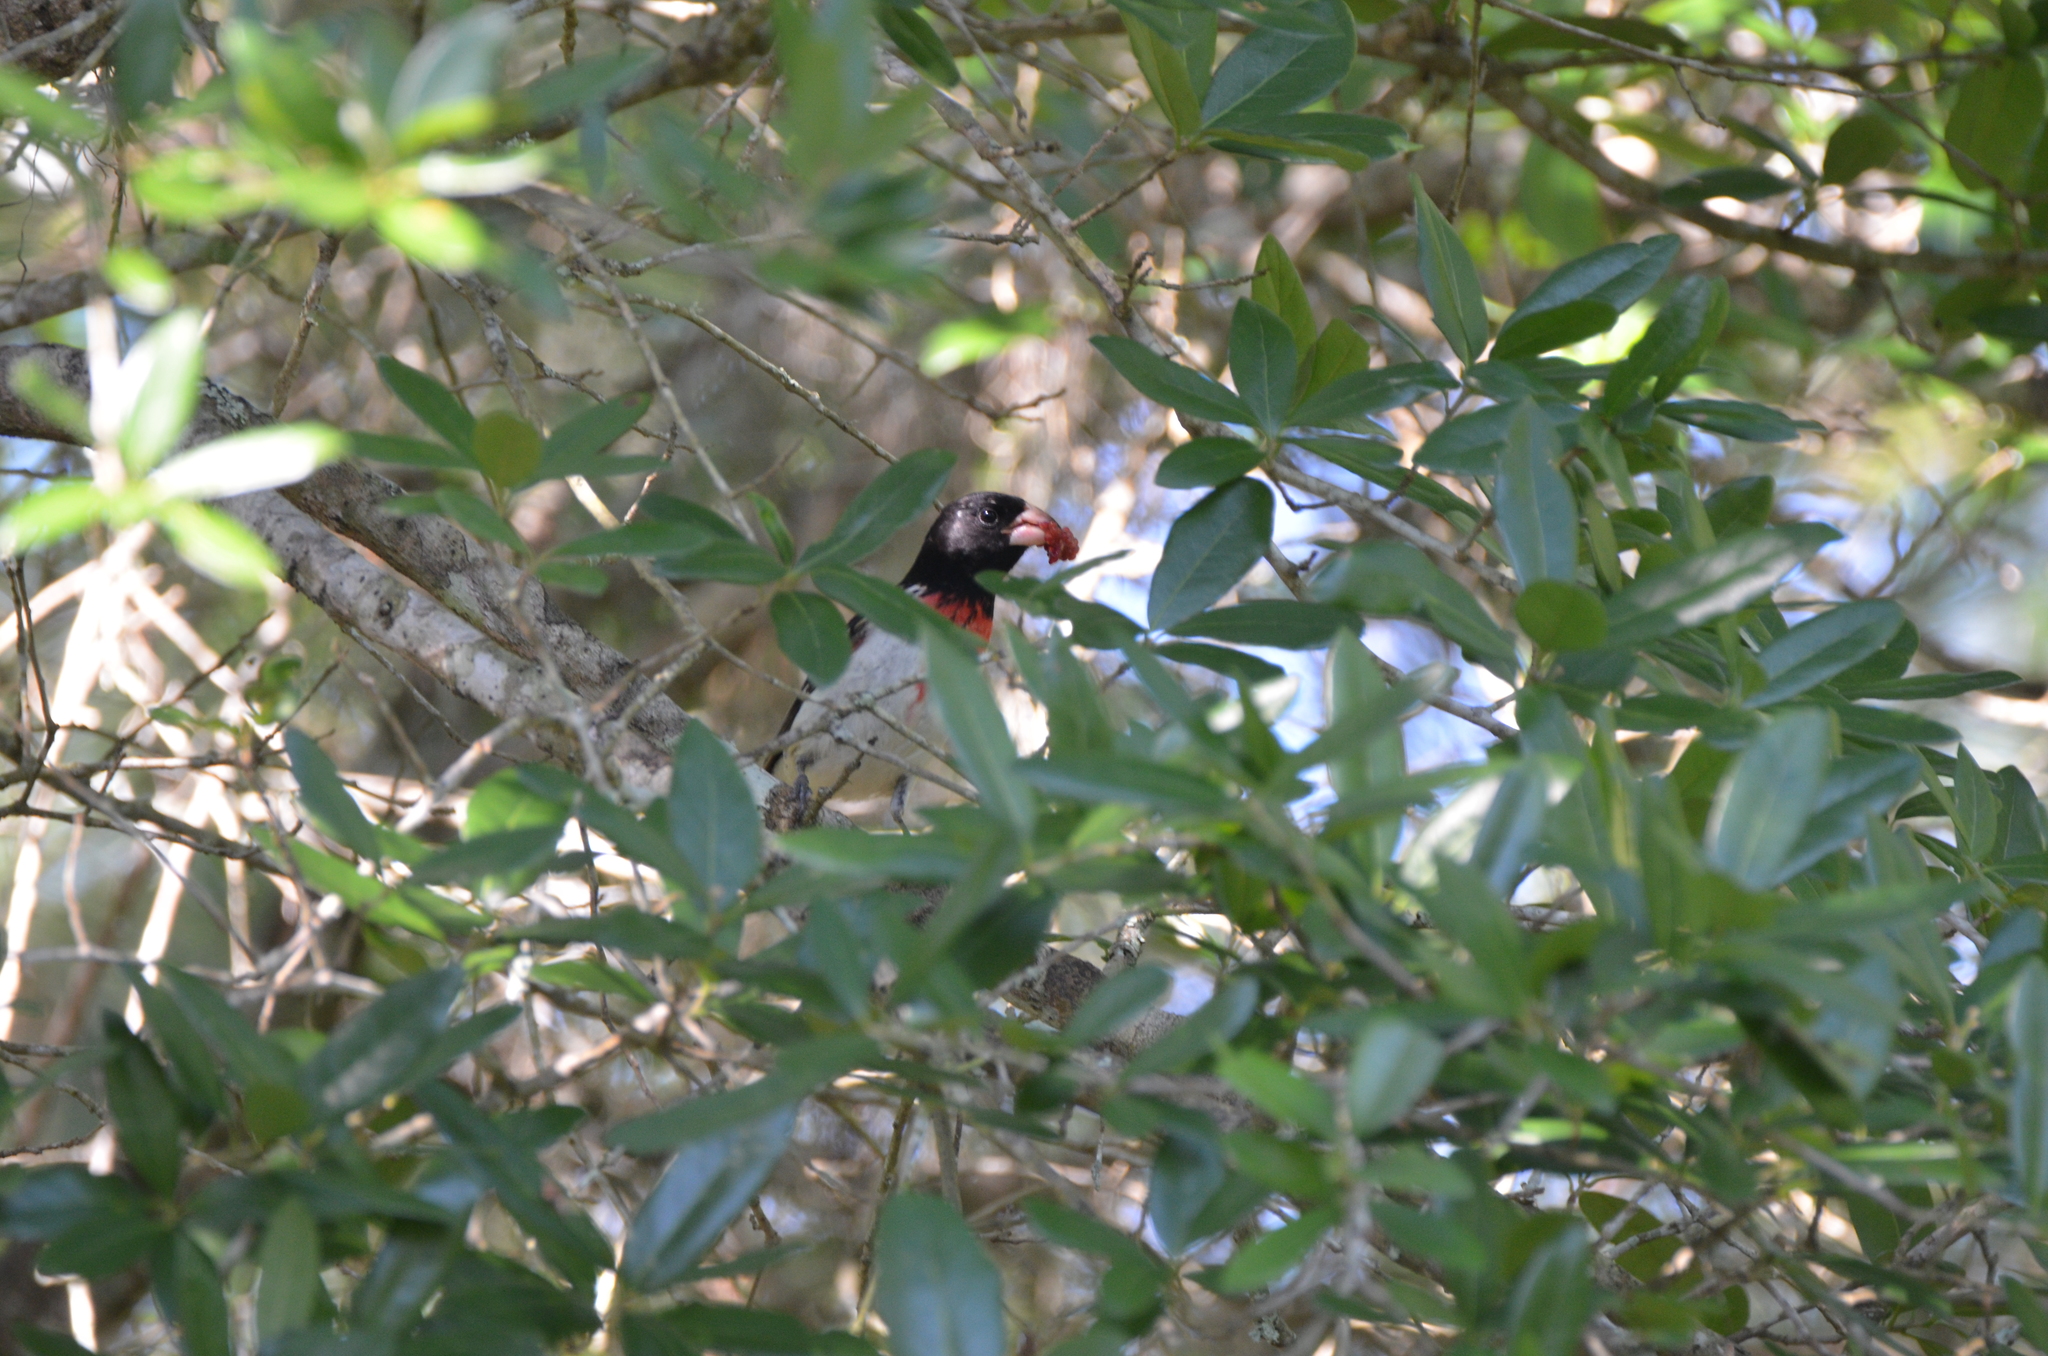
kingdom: Animalia
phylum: Chordata
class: Aves
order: Passeriformes
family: Cardinalidae
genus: Pheucticus
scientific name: Pheucticus ludovicianus
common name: Rose-breasted grosbeak
